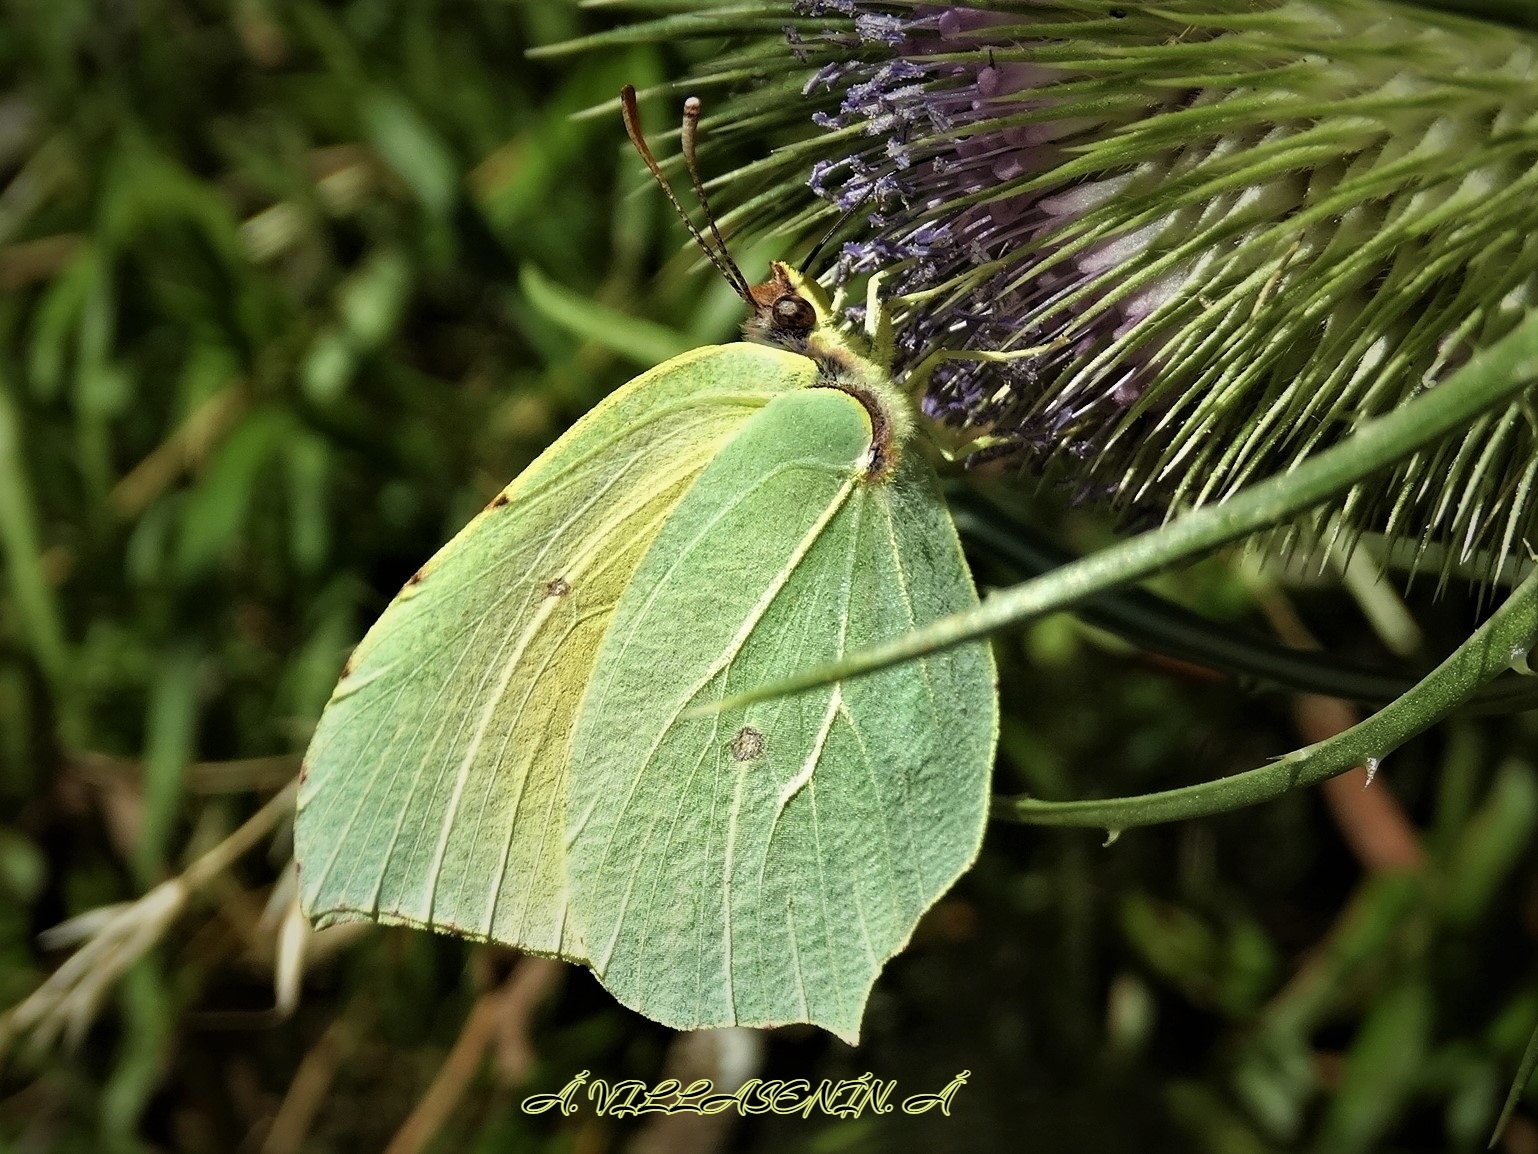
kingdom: Animalia
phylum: Arthropoda
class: Insecta
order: Lepidoptera
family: Pieridae
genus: Gonepteryx
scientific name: Gonepteryx cleopatra
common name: Cleopatra
